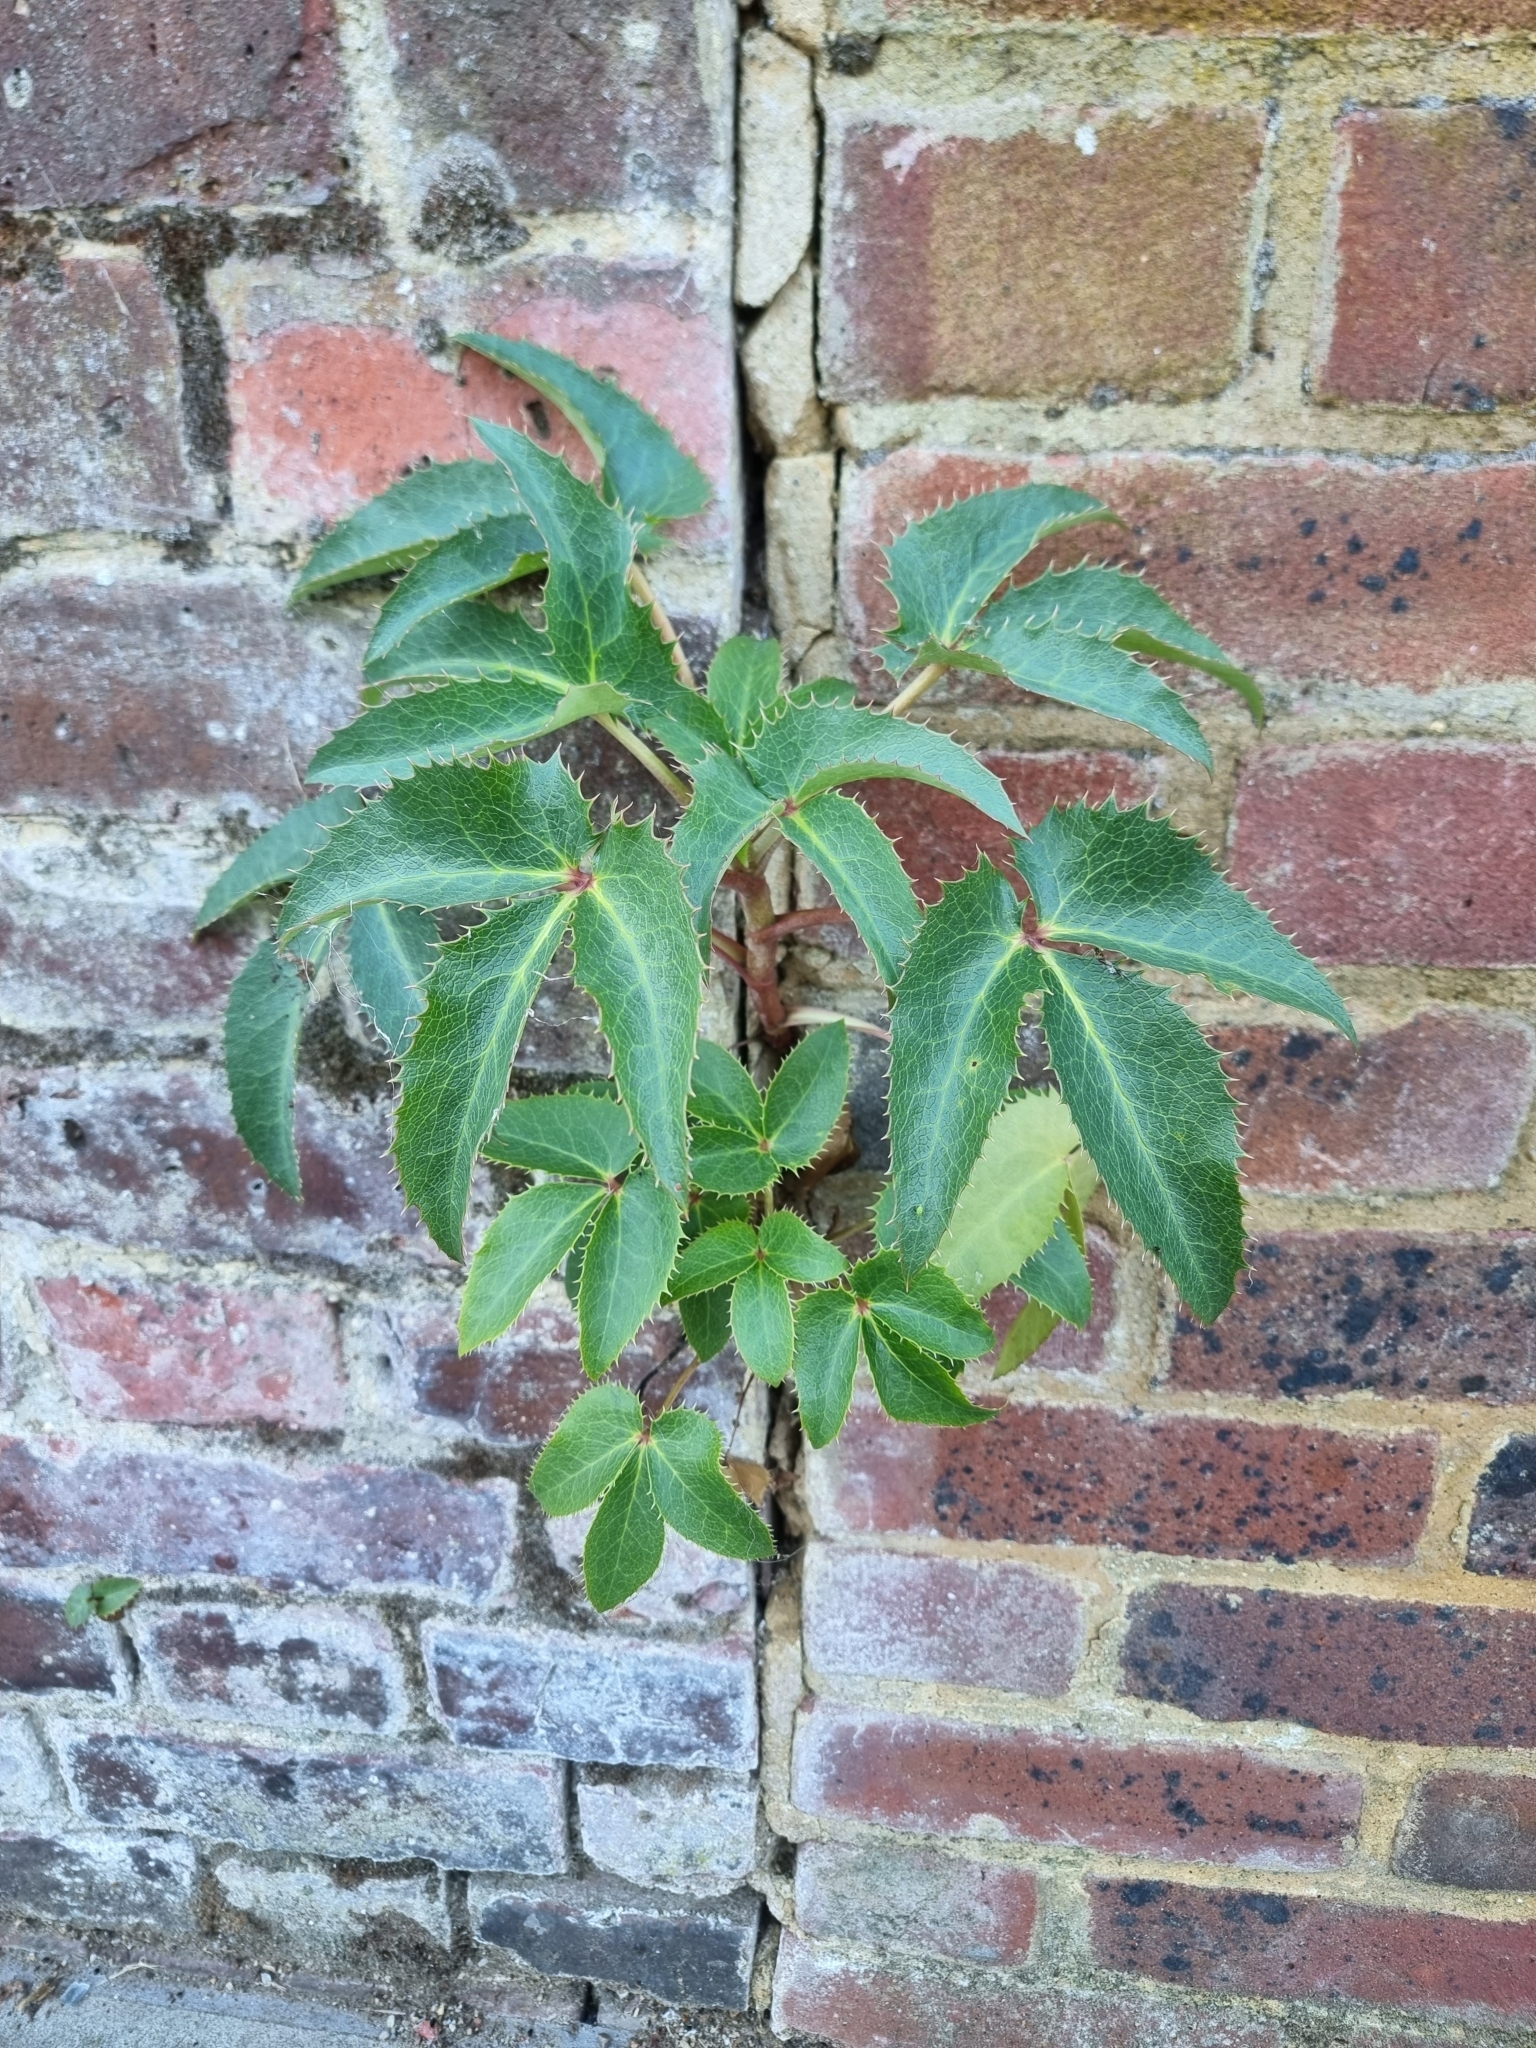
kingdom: Plantae
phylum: Tracheophyta
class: Magnoliopsida
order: Ranunculales
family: Ranunculaceae
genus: Helleborus
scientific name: Helleborus argutifolius
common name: Corsican hellebore
